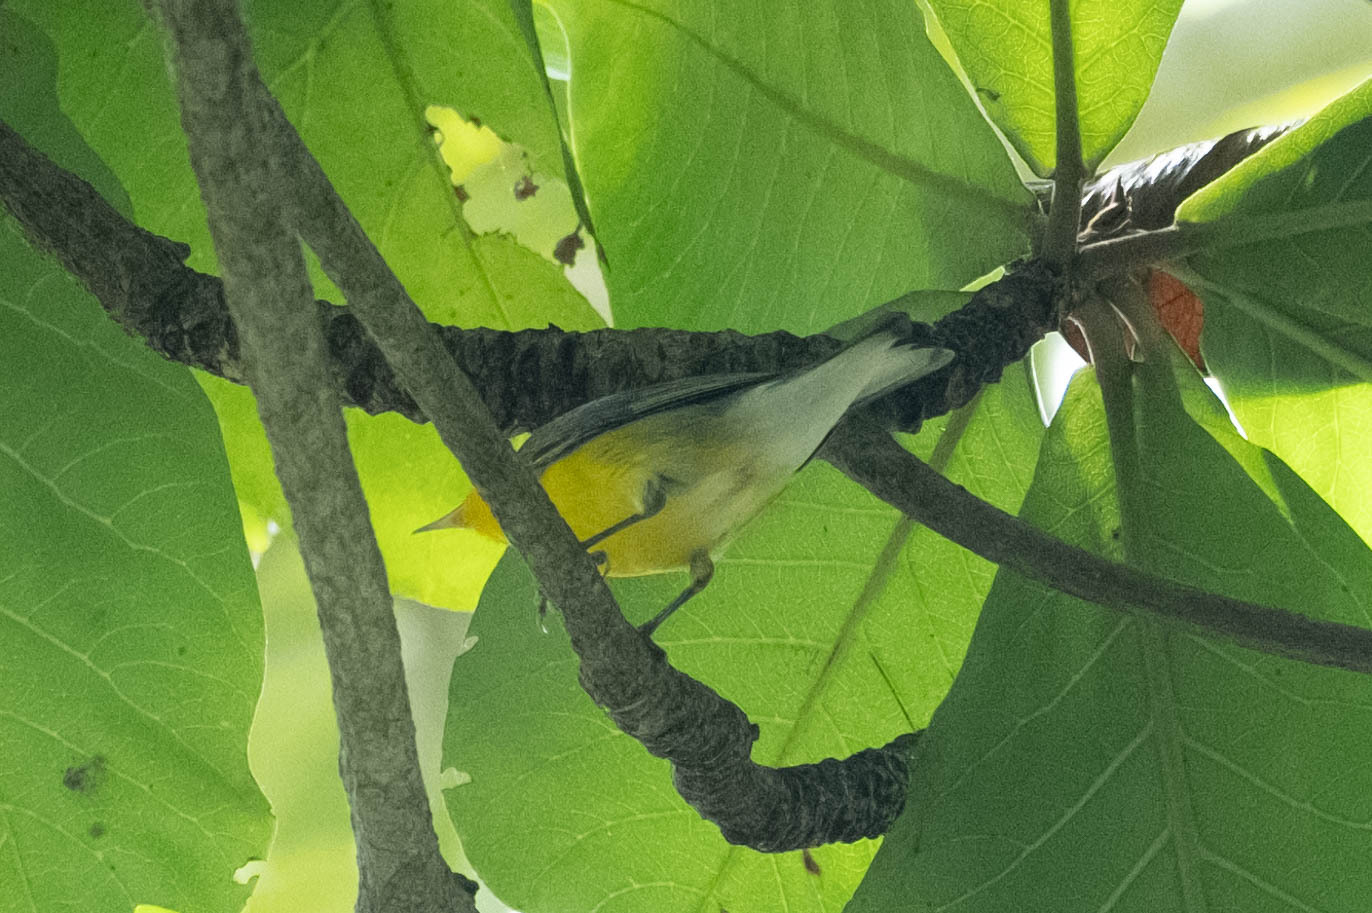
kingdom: Animalia
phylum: Chordata
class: Aves
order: Passeriformes
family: Parulidae
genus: Protonotaria
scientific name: Protonotaria citrea
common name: Prothonotary warbler
